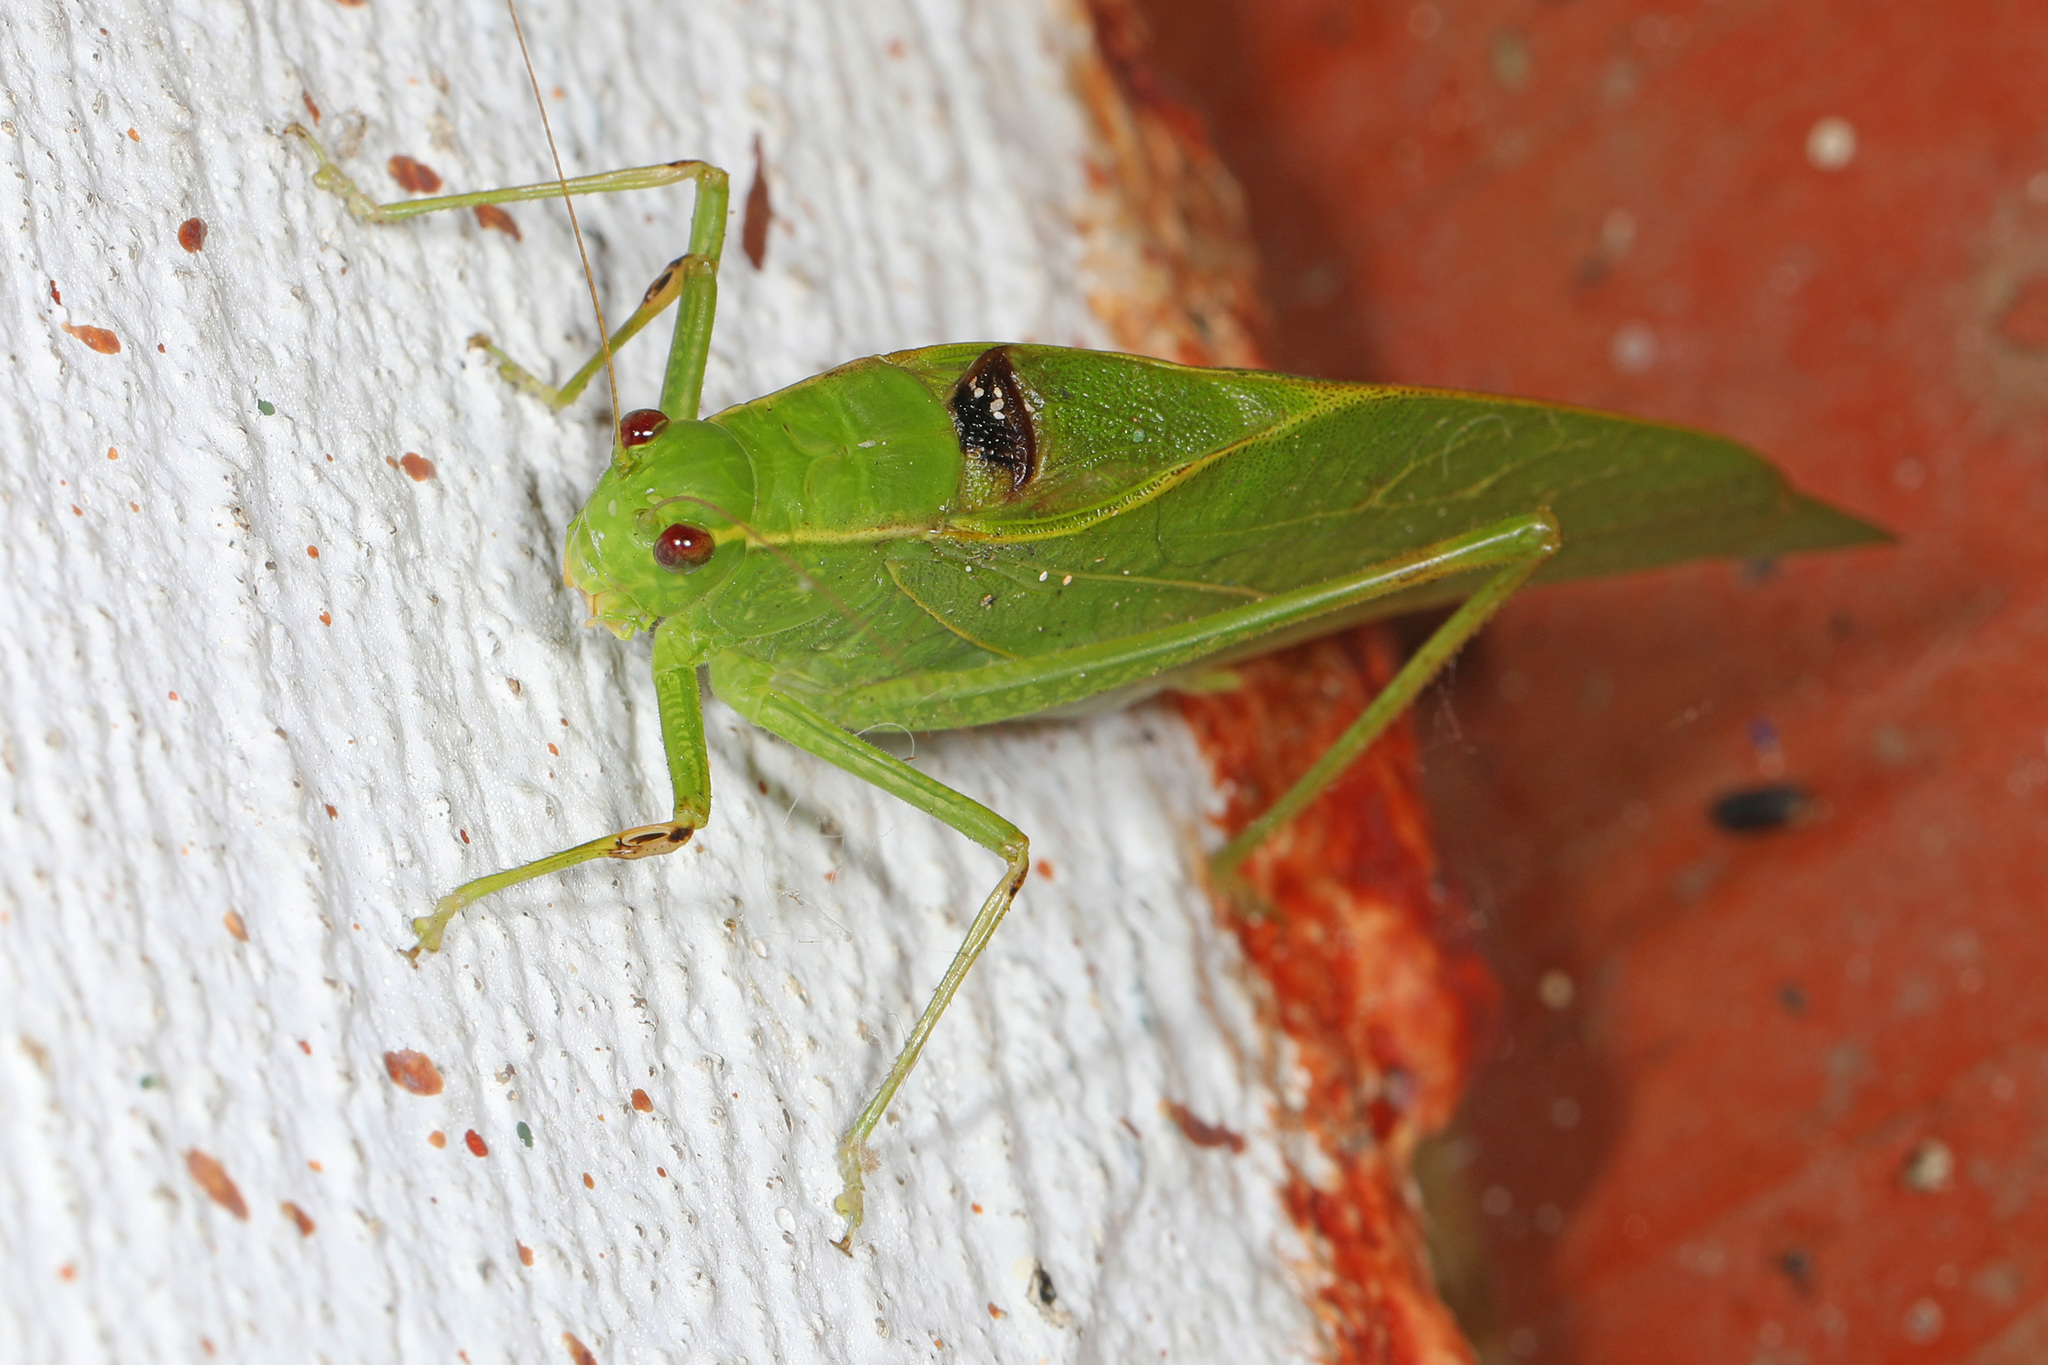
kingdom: Animalia
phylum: Arthropoda
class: Insecta
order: Orthoptera
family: Tettigoniidae
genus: Microcentrum
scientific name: Microcentrum retinerve
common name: Angular-winged katydid
